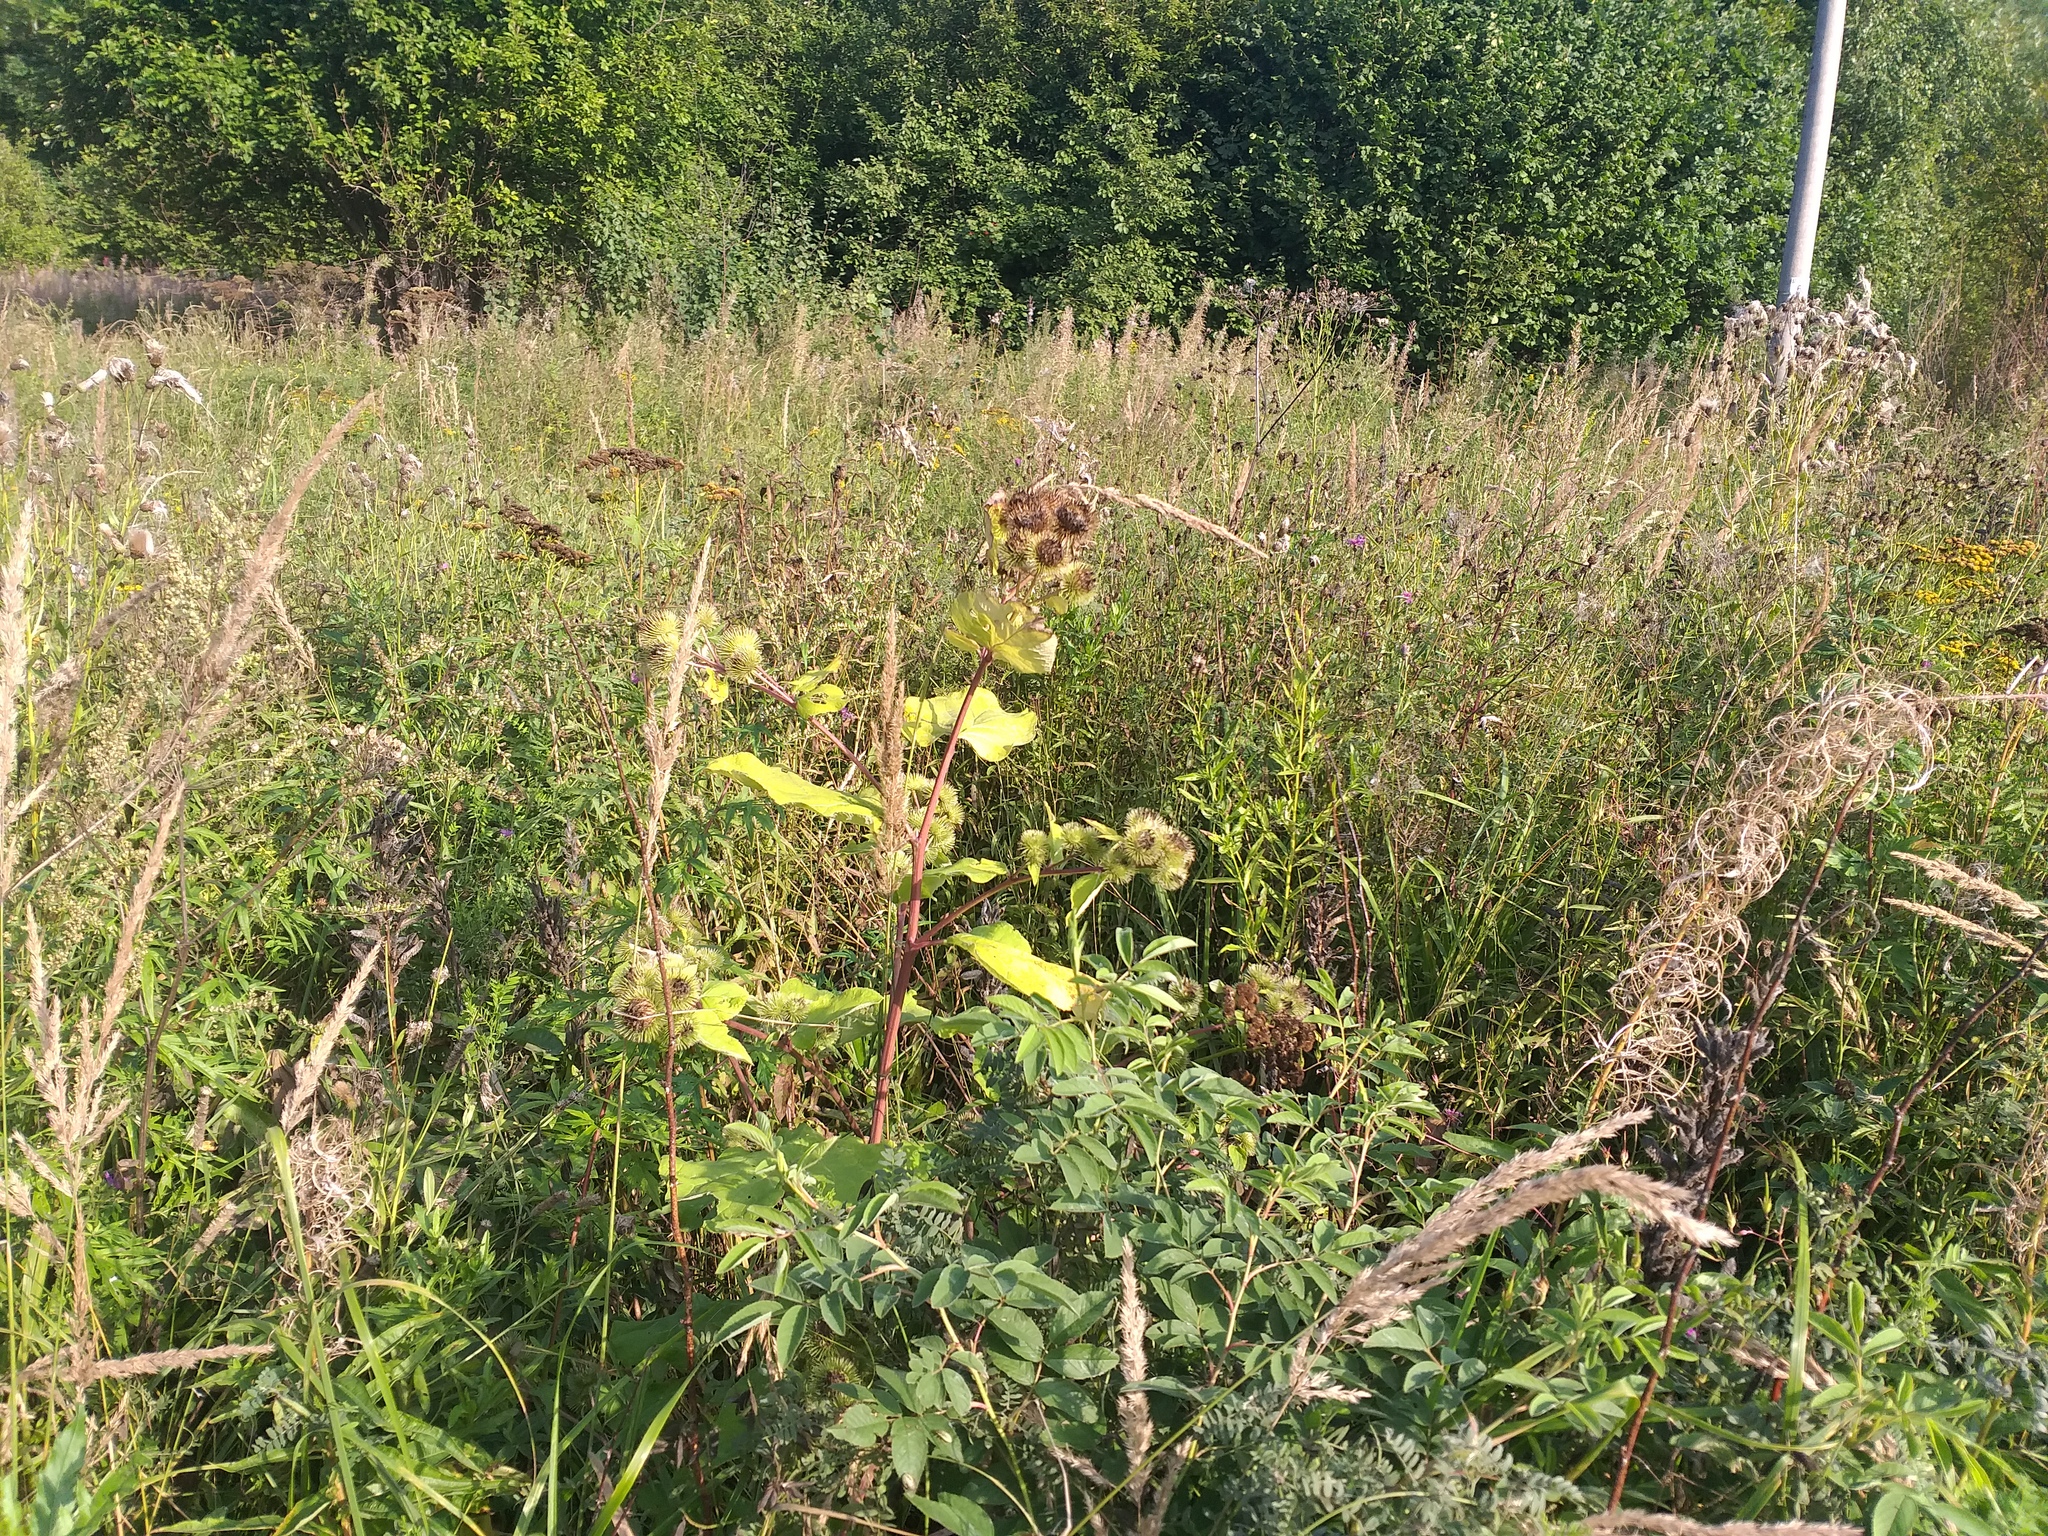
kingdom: Plantae
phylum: Tracheophyta
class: Magnoliopsida
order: Asterales
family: Asteraceae
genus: Arctium
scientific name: Arctium lappa
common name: Greater burdock
